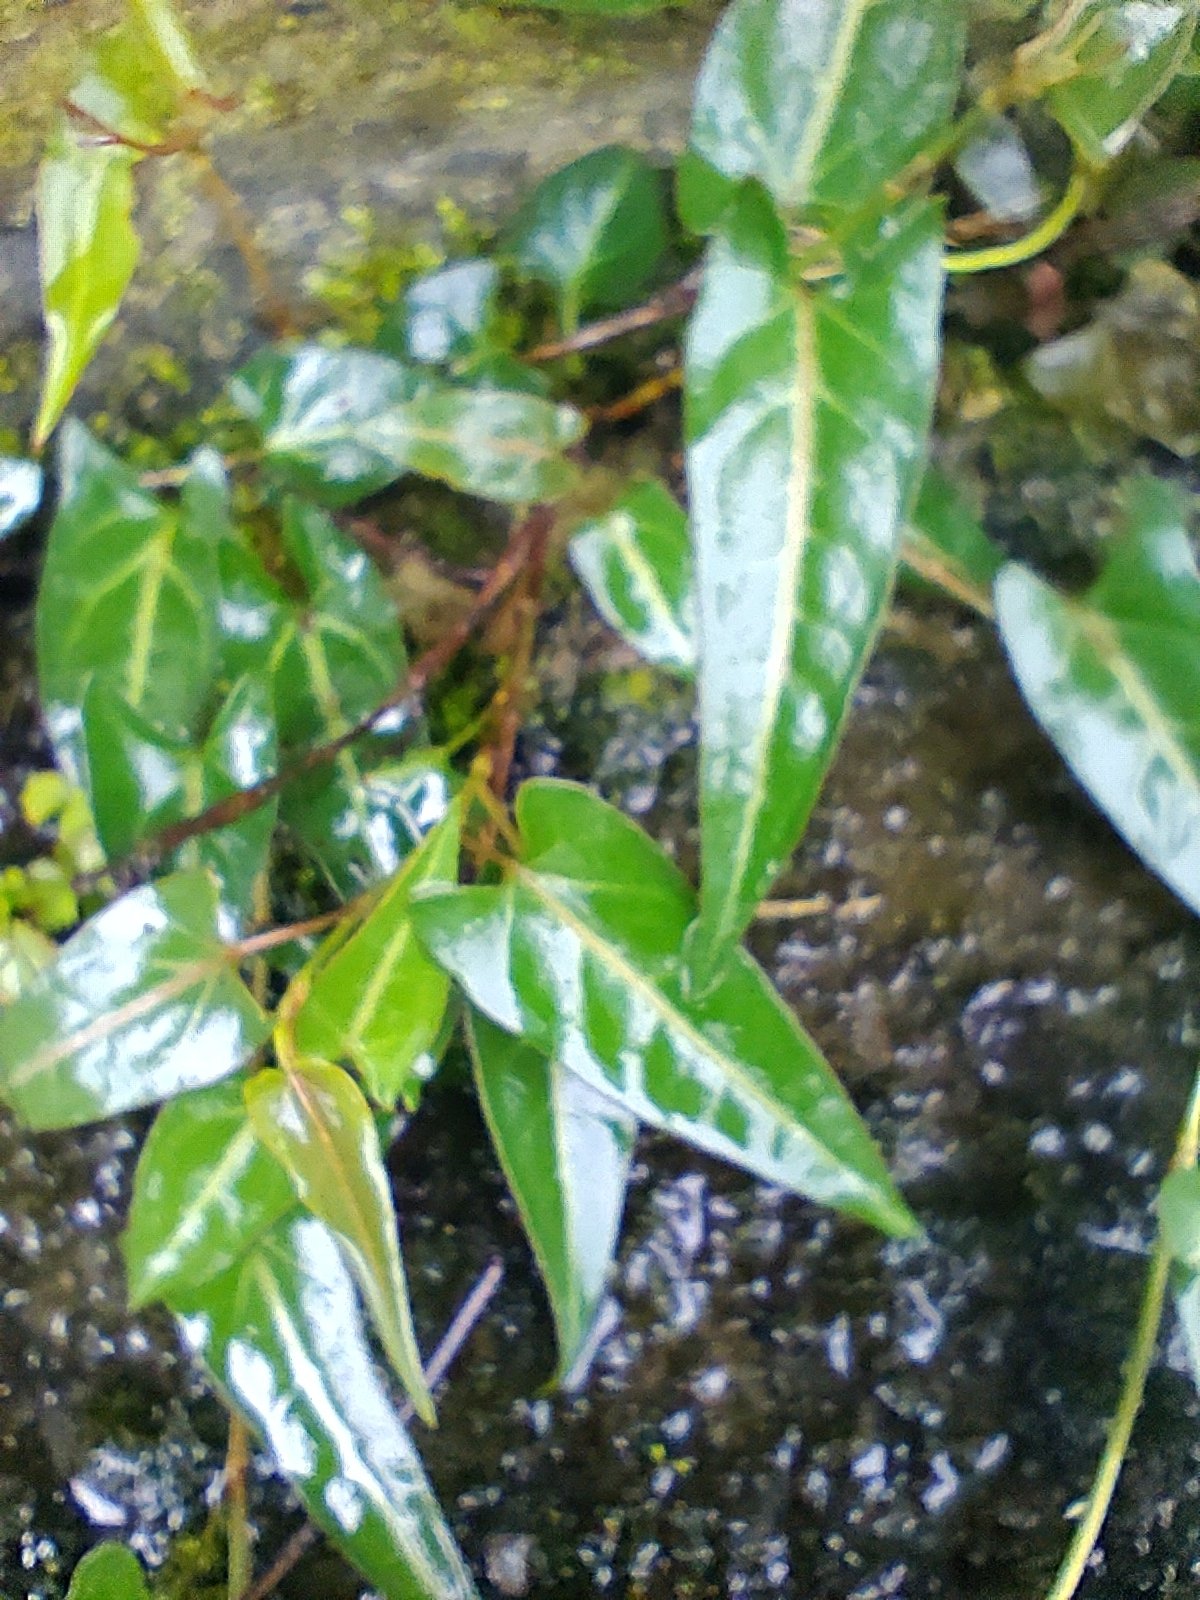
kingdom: Plantae
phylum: Tracheophyta
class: Magnoliopsida
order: Caryophyllales
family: Polygonaceae
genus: Reynoutria
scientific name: Reynoutria multiflora
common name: Chinese fleeceflower
